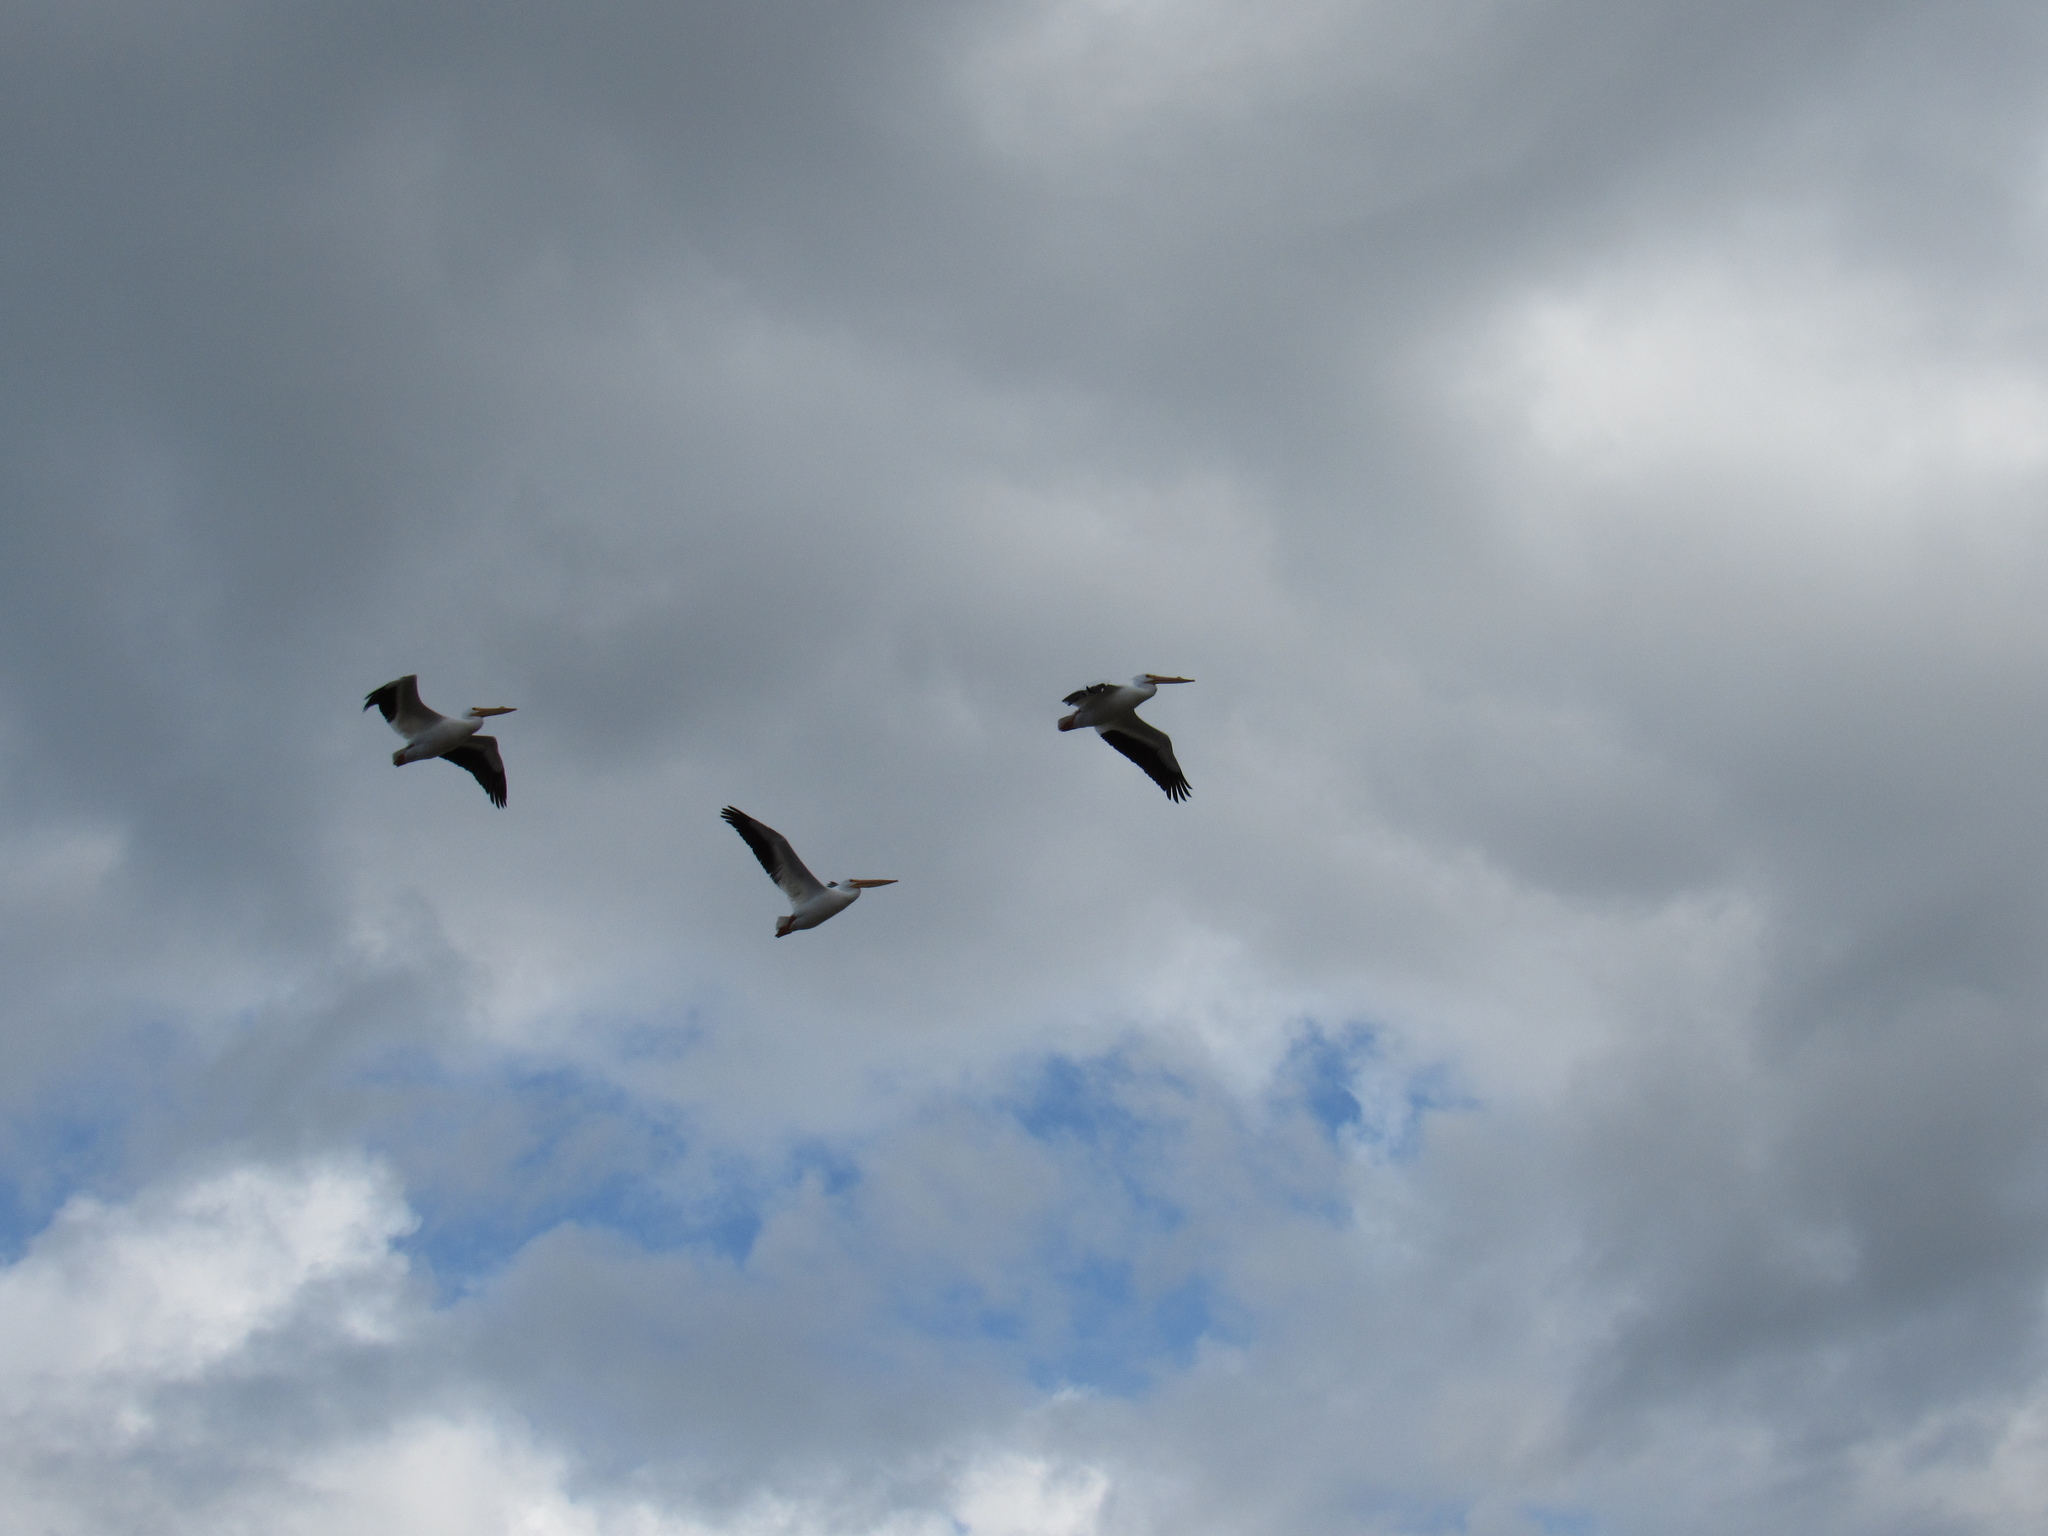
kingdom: Animalia
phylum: Chordata
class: Aves
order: Pelecaniformes
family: Pelecanidae
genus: Pelecanus
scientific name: Pelecanus erythrorhynchos
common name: American white pelican
